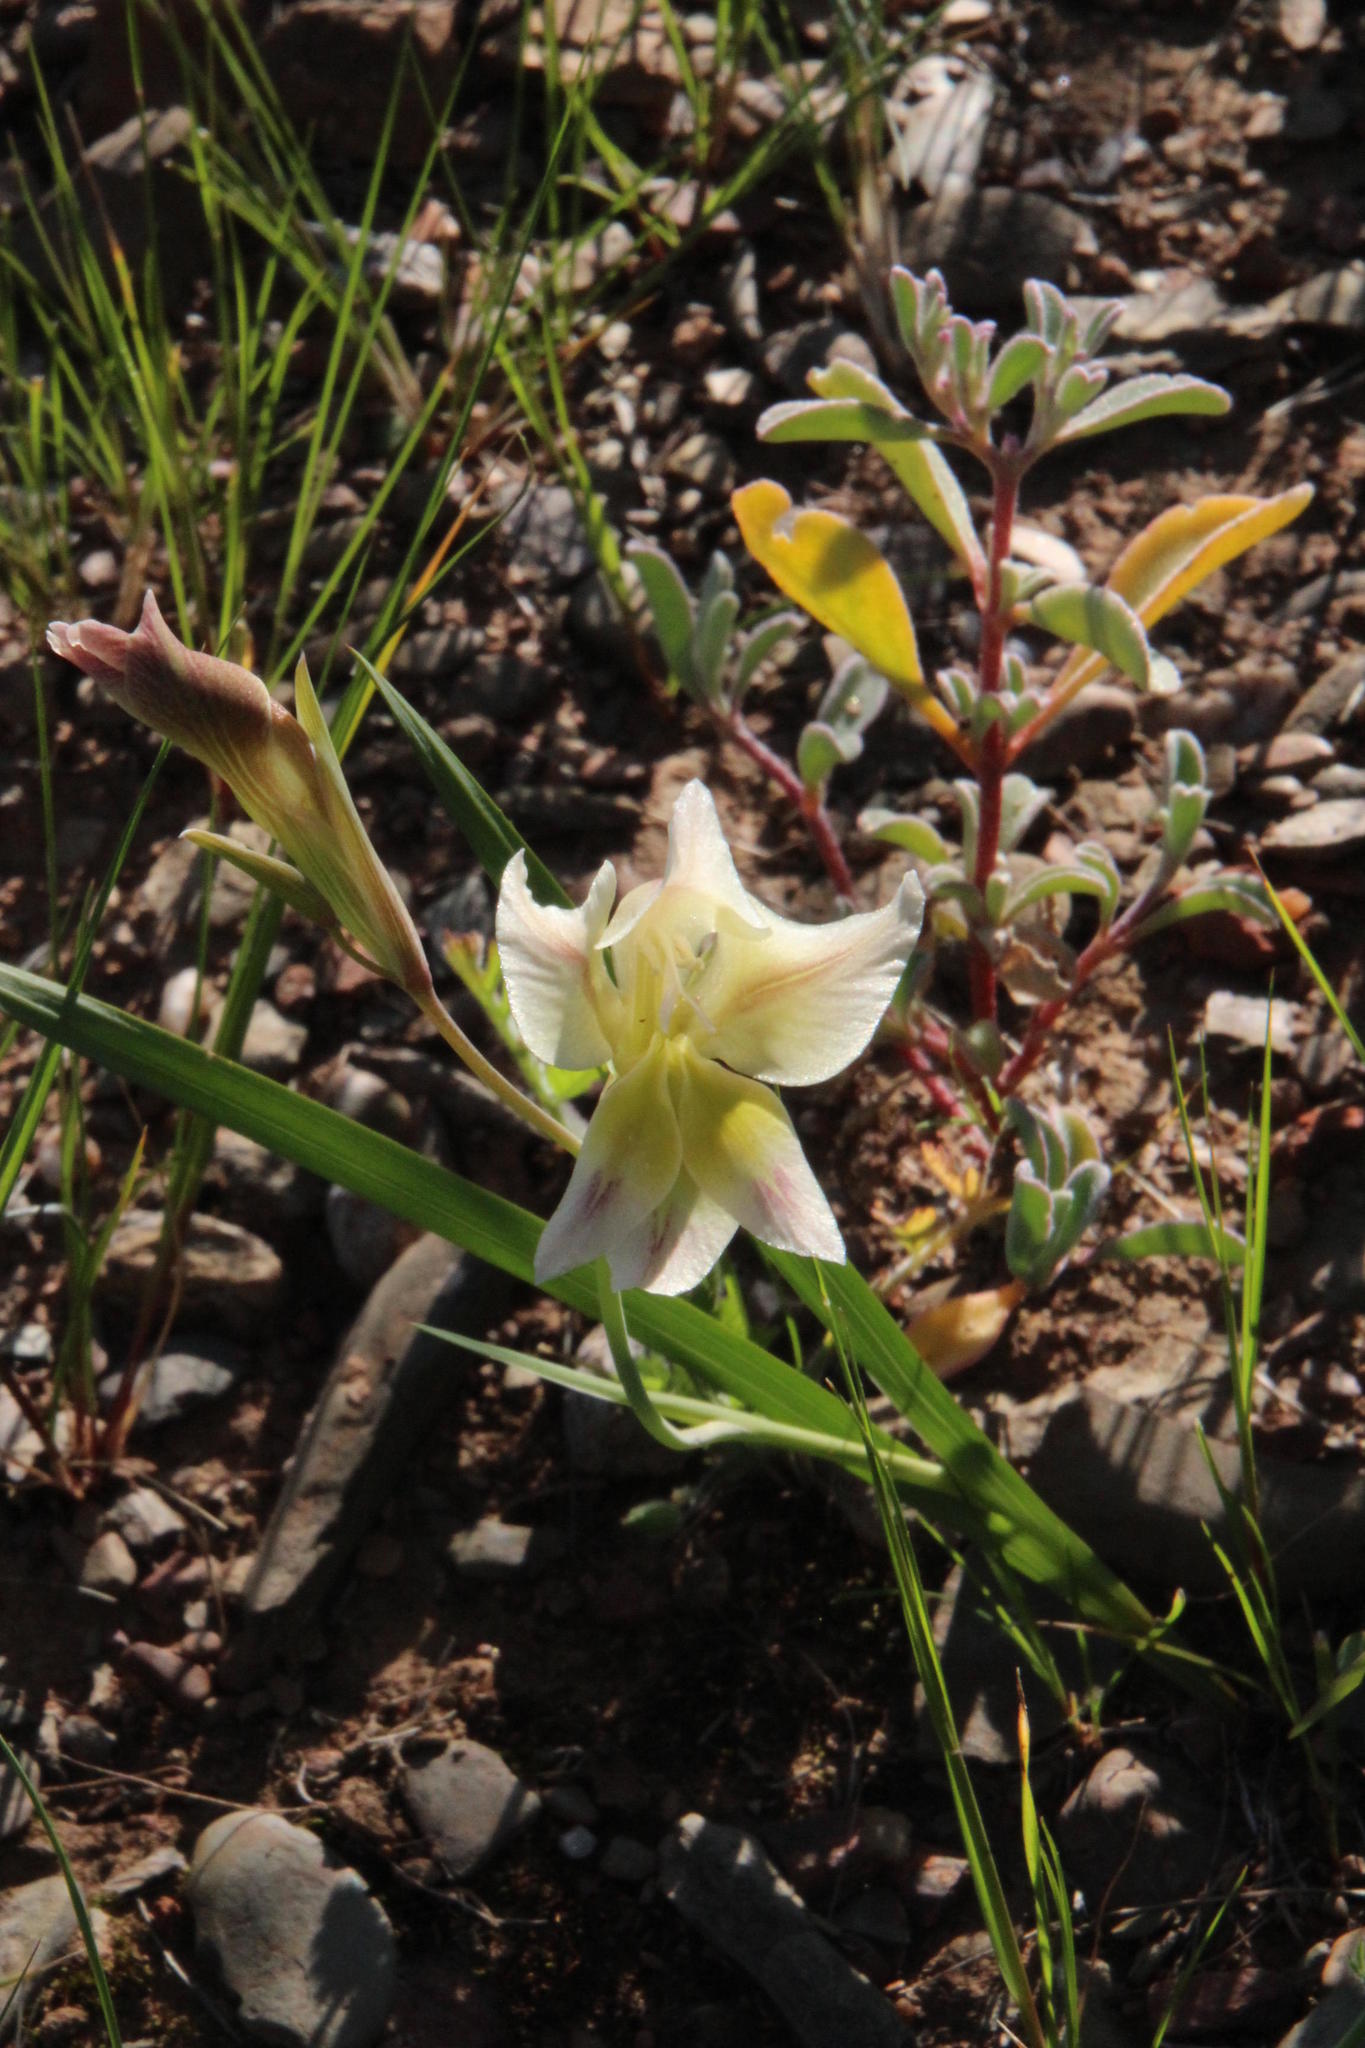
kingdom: Plantae
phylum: Tracheophyta
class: Liliopsida
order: Asparagales
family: Iridaceae
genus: Gladiolus
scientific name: Gladiolus scullyi
